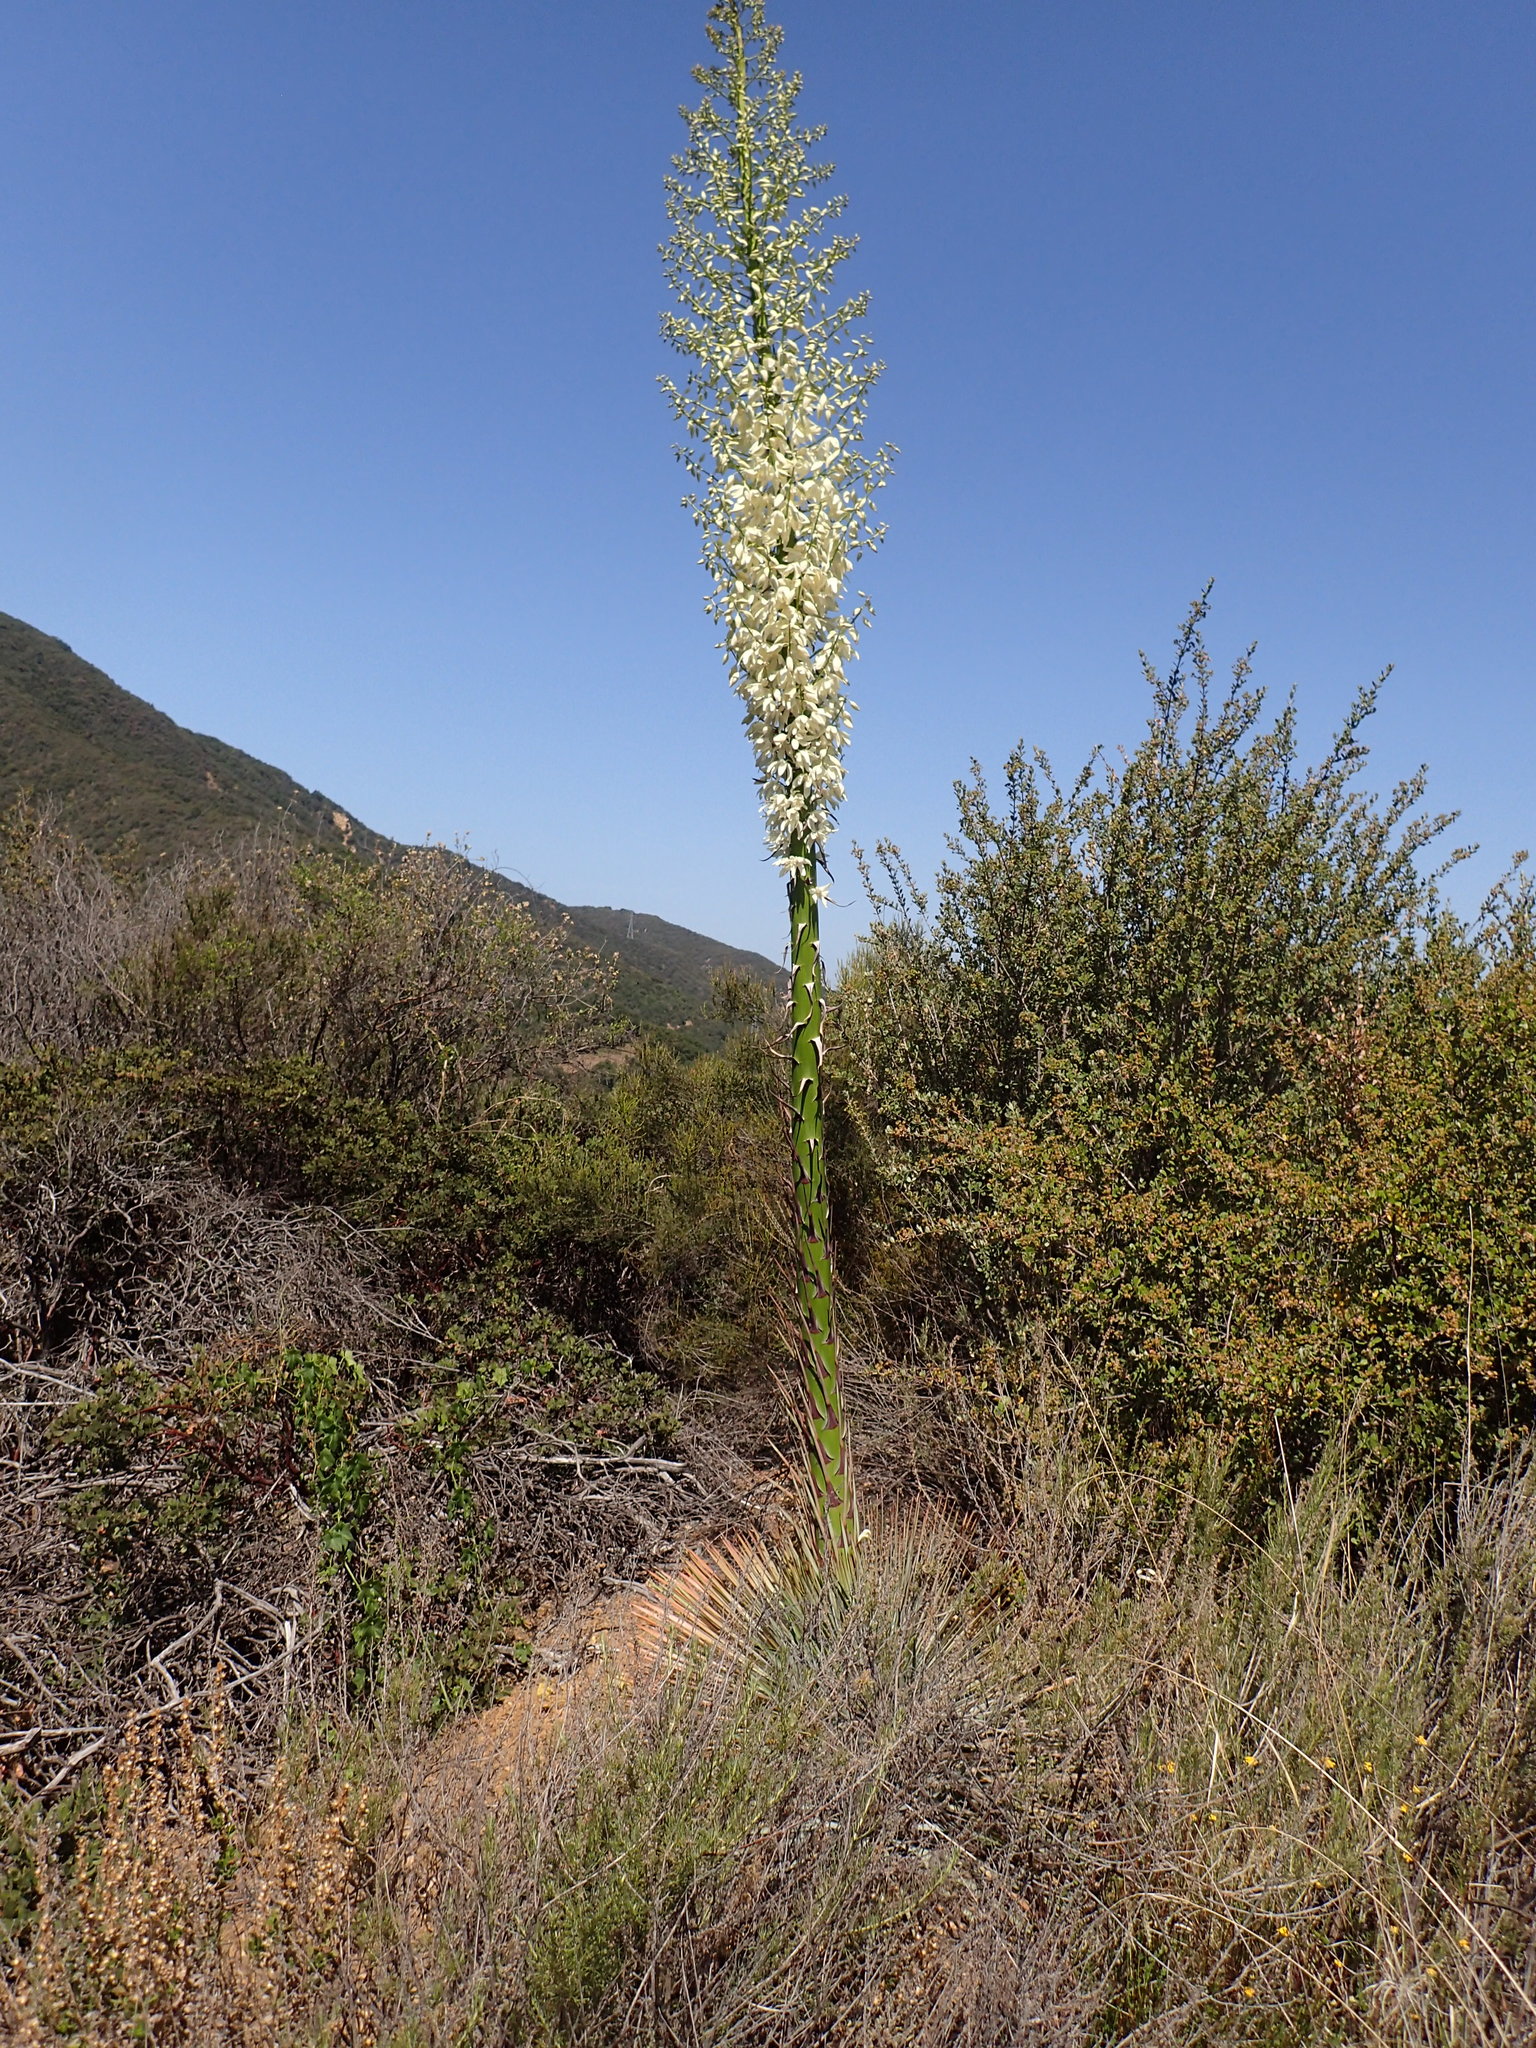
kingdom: Plantae
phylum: Tracheophyta
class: Liliopsida
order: Asparagales
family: Asparagaceae
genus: Hesperoyucca
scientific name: Hesperoyucca whipplei
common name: Our lord's-candle
